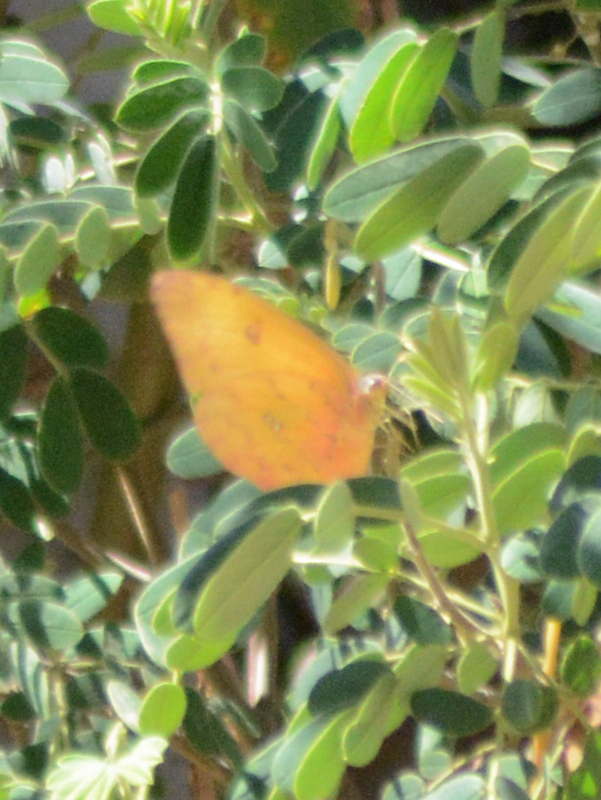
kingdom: Animalia
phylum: Arthropoda
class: Insecta
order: Lepidoptera
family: Pieridae
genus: Phoebis
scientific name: Phoebis philea
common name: Orange-barred giant sulphur
